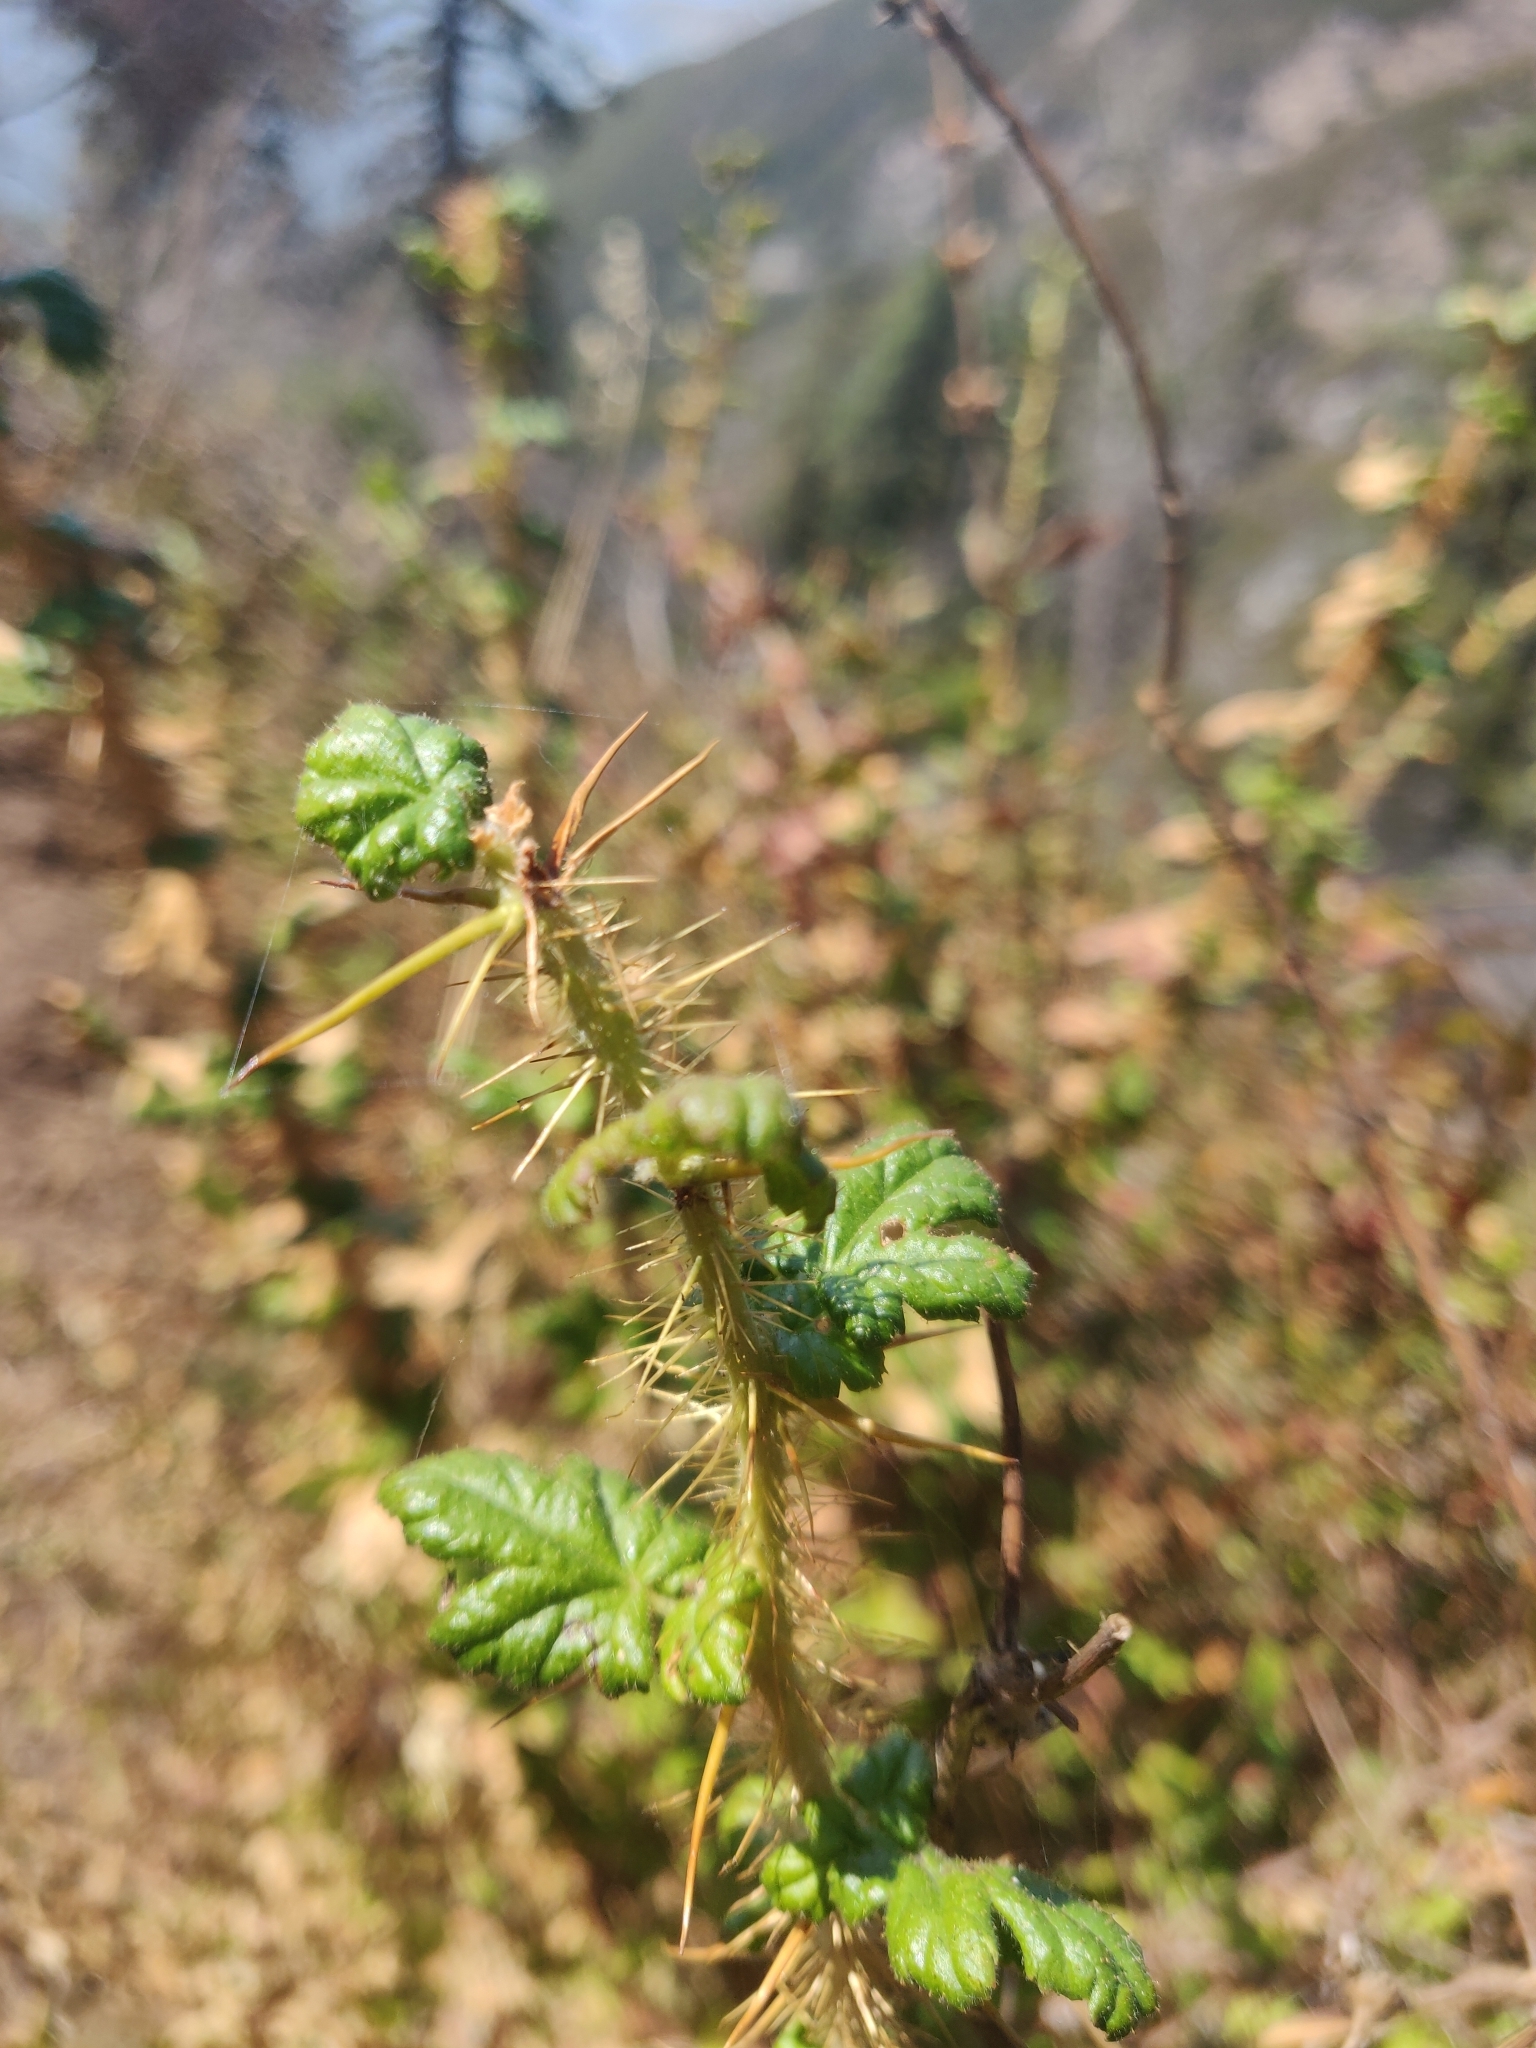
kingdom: Plantae
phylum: Tracheophyta
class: Magnoliopsida
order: Saxifragales
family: Grossulariaceae
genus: Ribes
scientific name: Ribes speciosum
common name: Fuchsia-flower gooseberry
